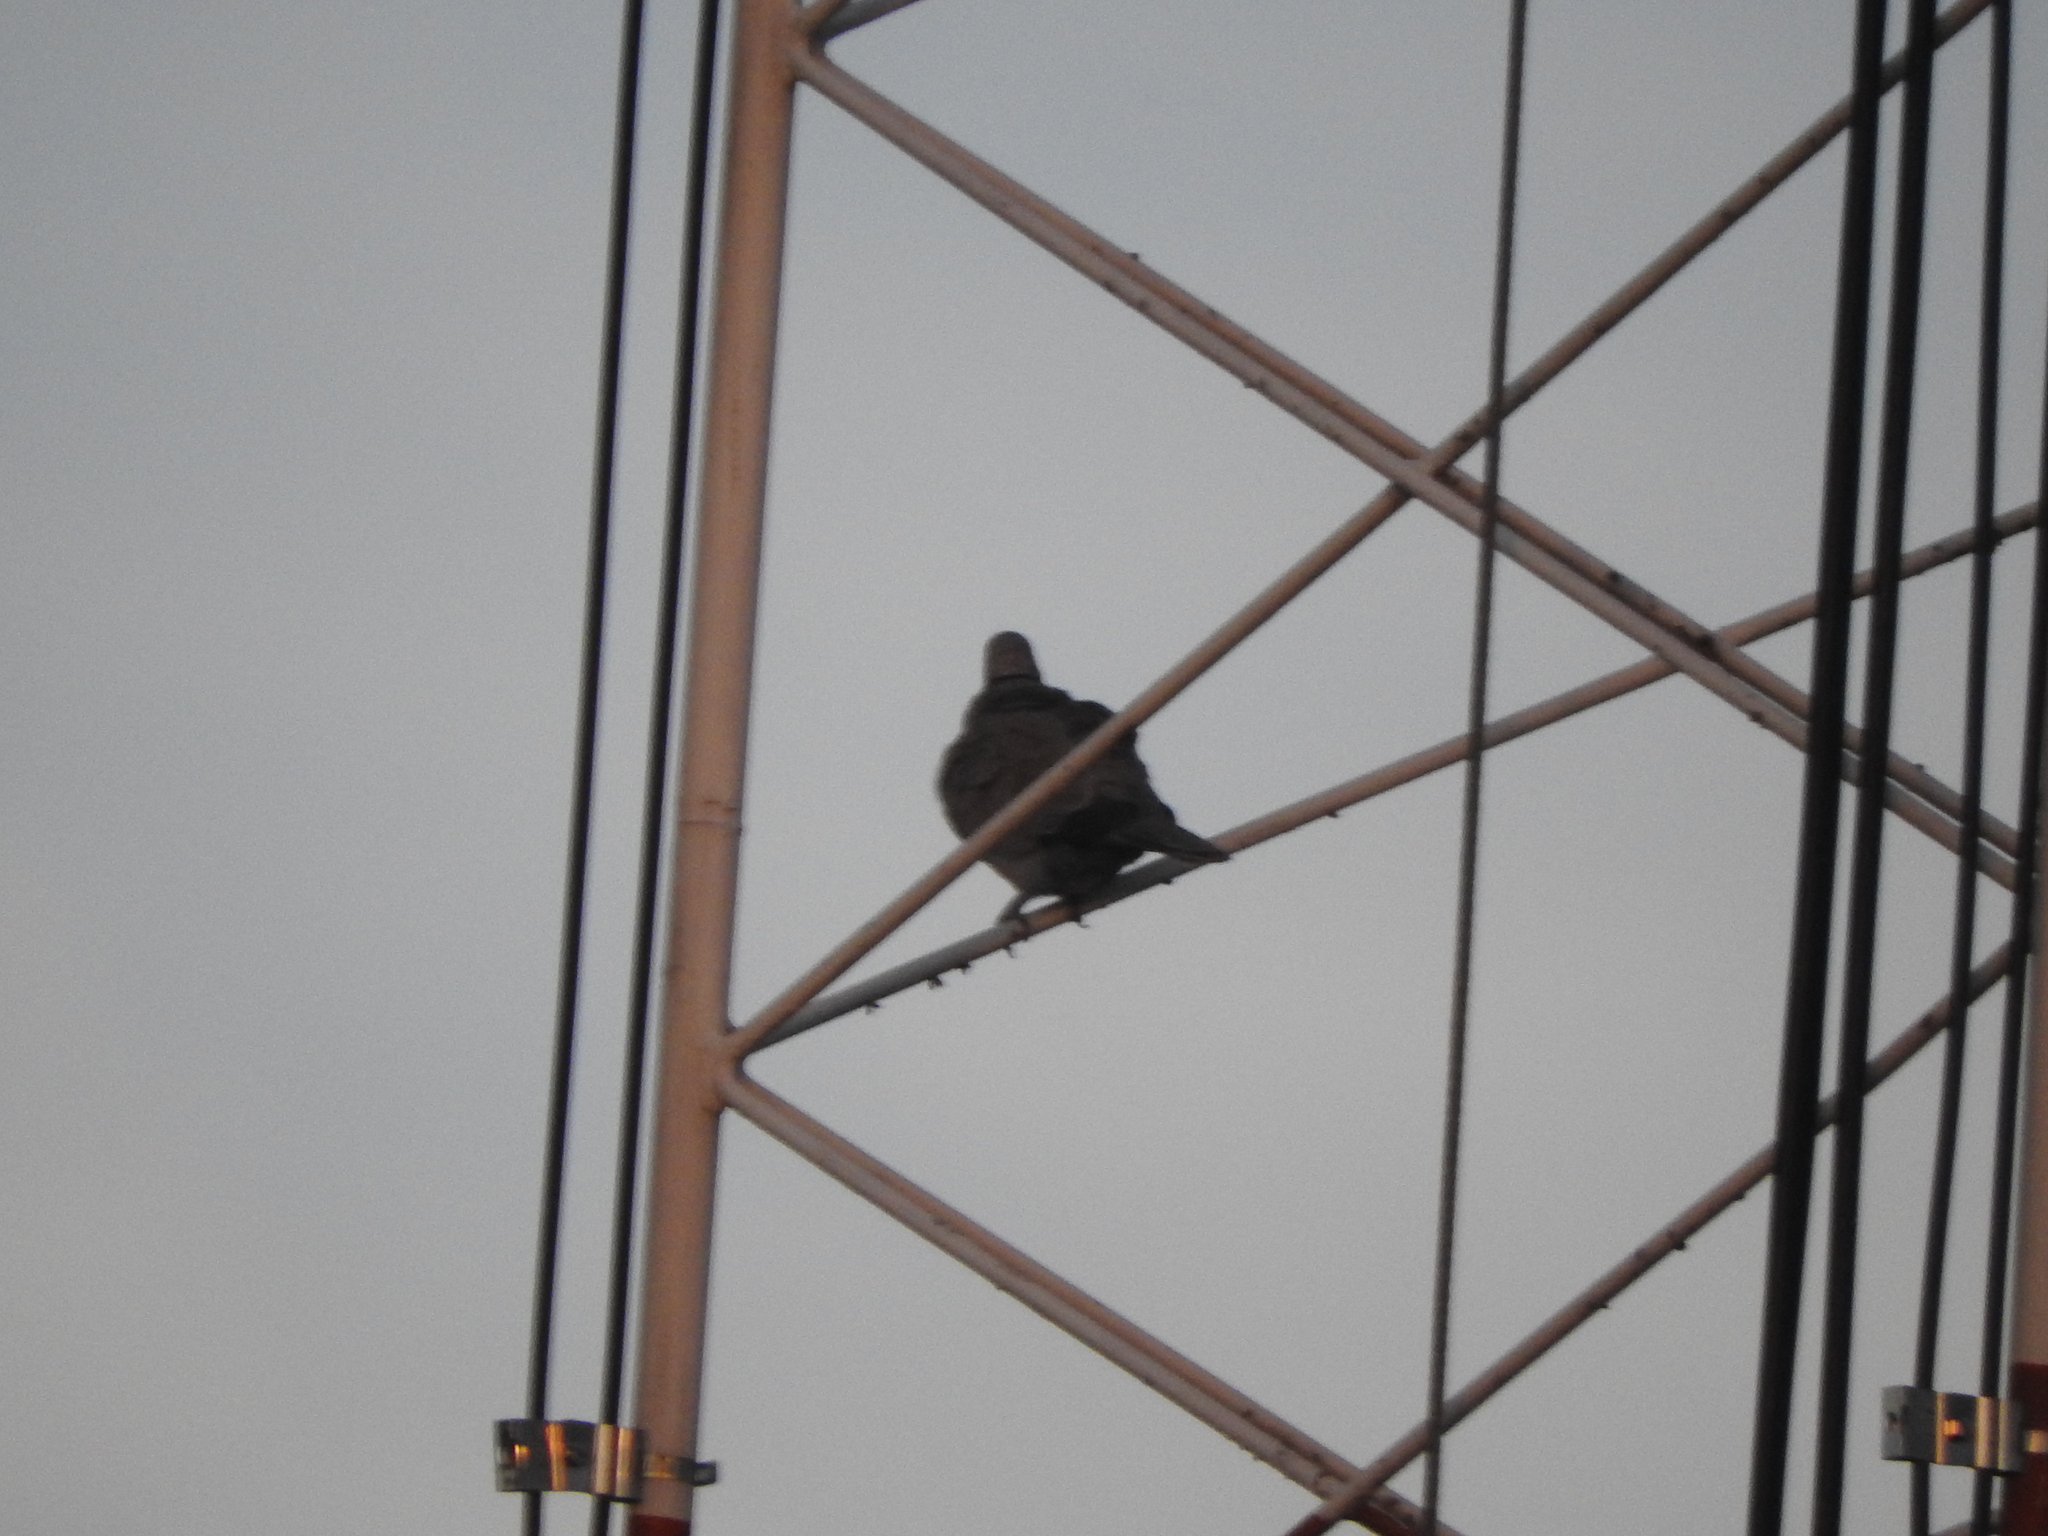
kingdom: Animalia
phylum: Chordata
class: Aves
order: Columbiformes
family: Columbidae
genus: Streptopelia
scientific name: Streptopelia decaocto
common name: Eurasian collared dove
